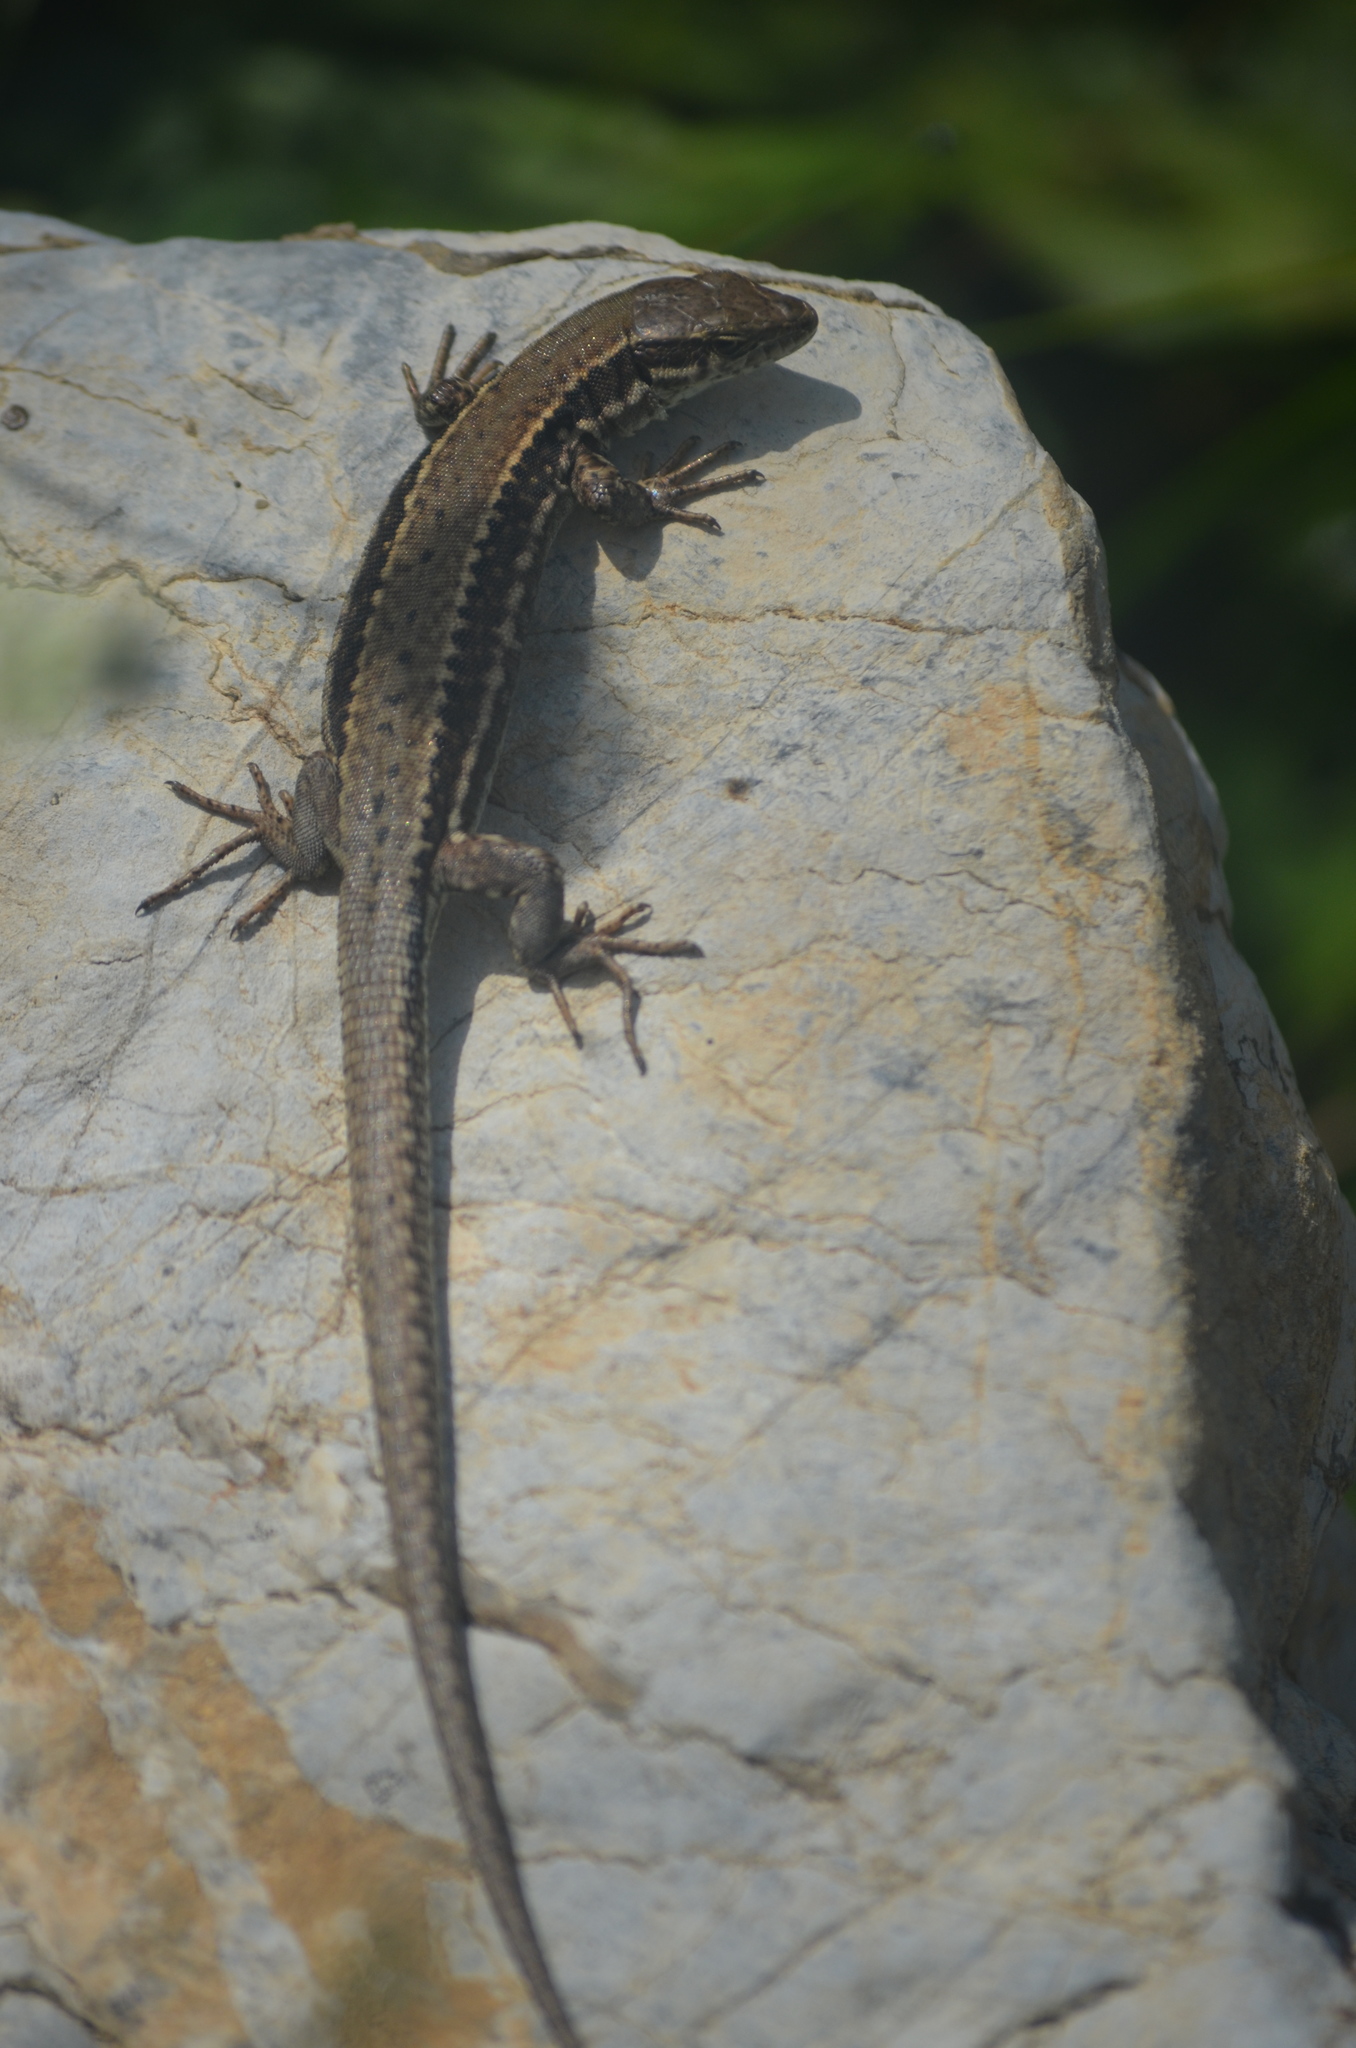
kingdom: Animalia
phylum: Chordata
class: Squamata
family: Lacertidae
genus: Podarcis
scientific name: Podarcis muralis
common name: Common wall lizard
